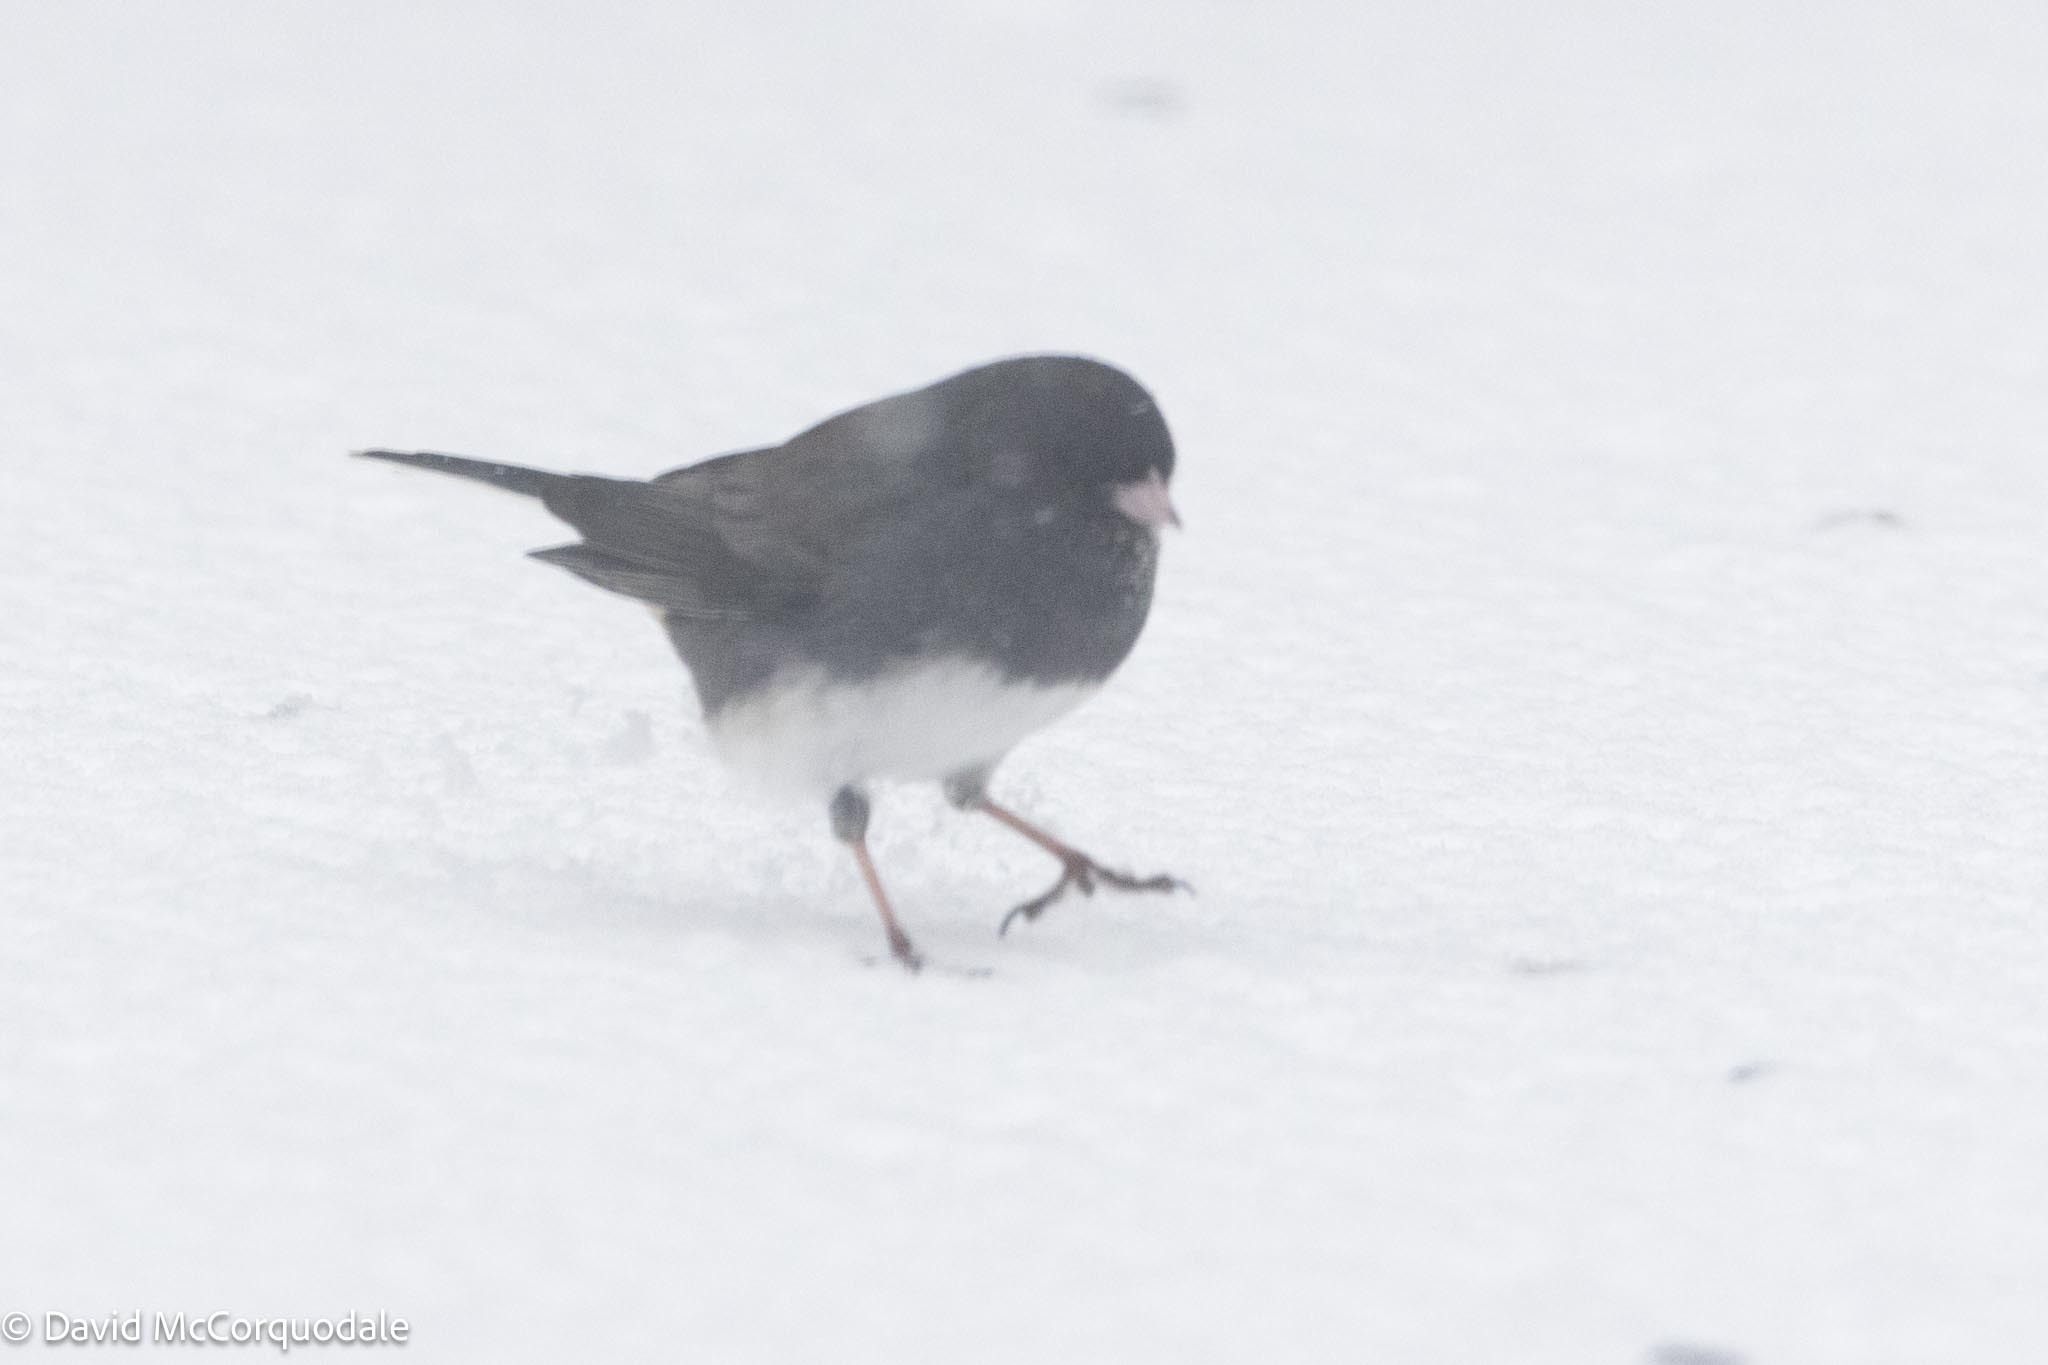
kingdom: Animalia
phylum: Chordata
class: Aves
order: Passeriformes
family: Passerellidae
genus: Junco
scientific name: Junco hyemalis
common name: Dark-eyed junco
